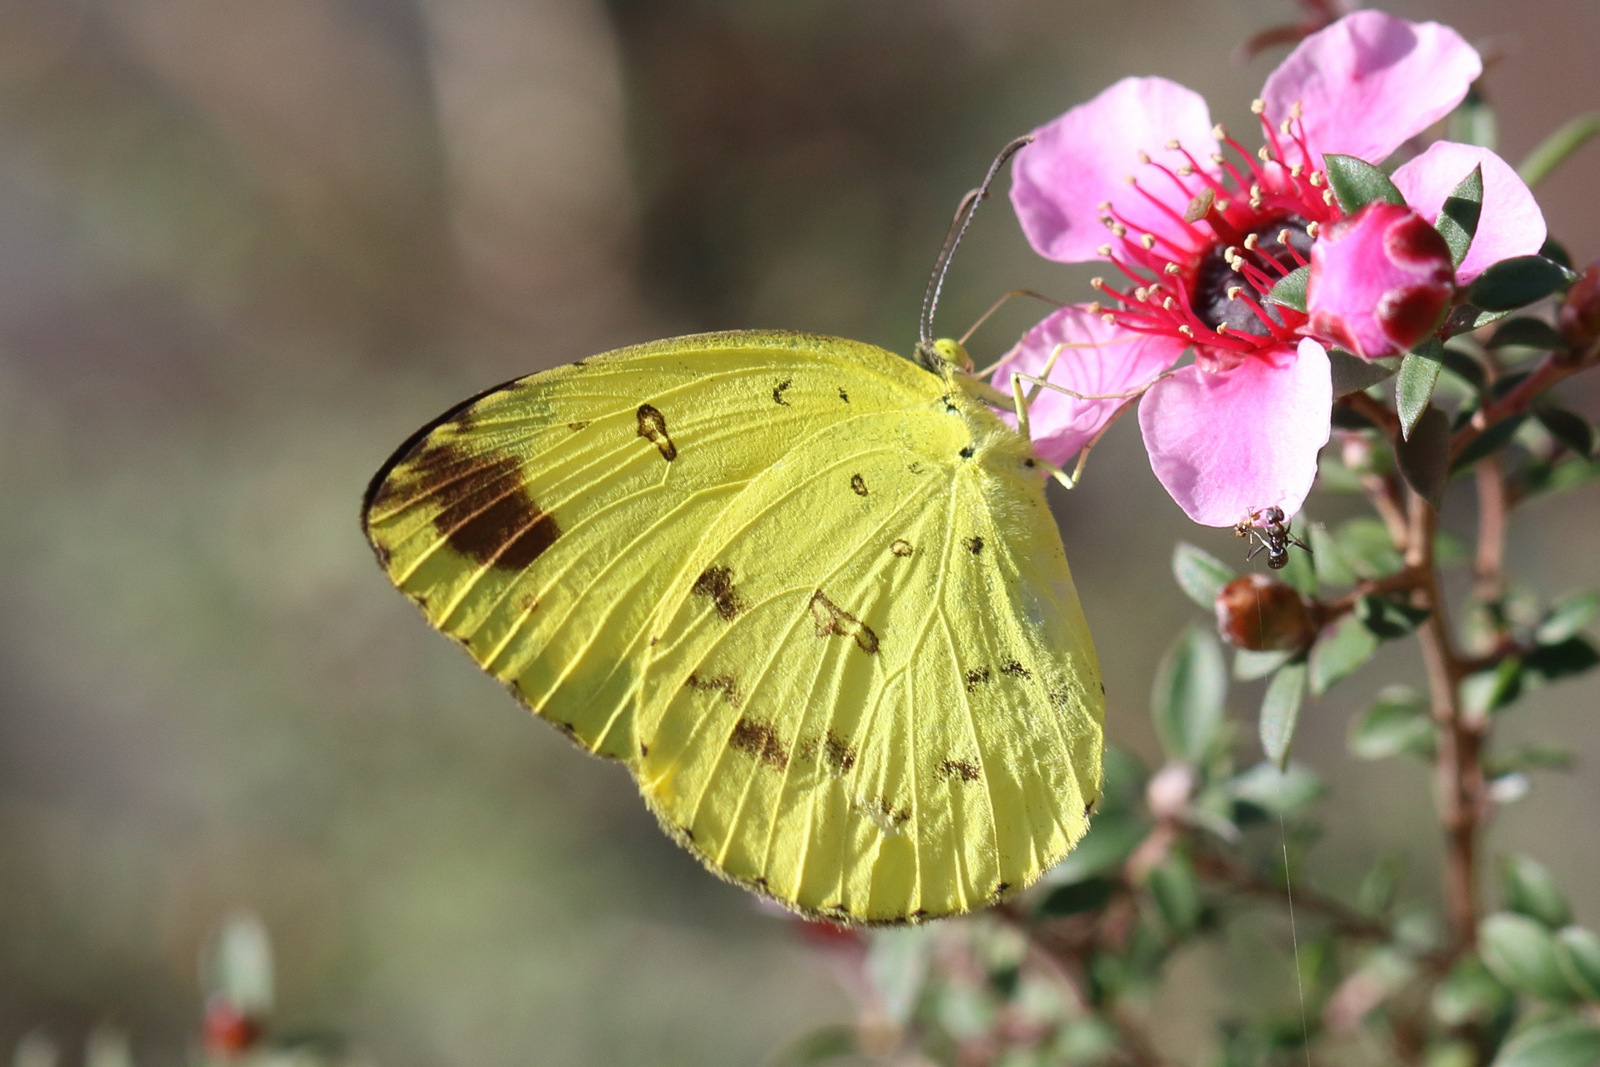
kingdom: Animalia
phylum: Arthropoda
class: Insecta
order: Lepidoptera
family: Pieridae
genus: Eurema
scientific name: Eurema hecabe
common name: Pale grass yellow
